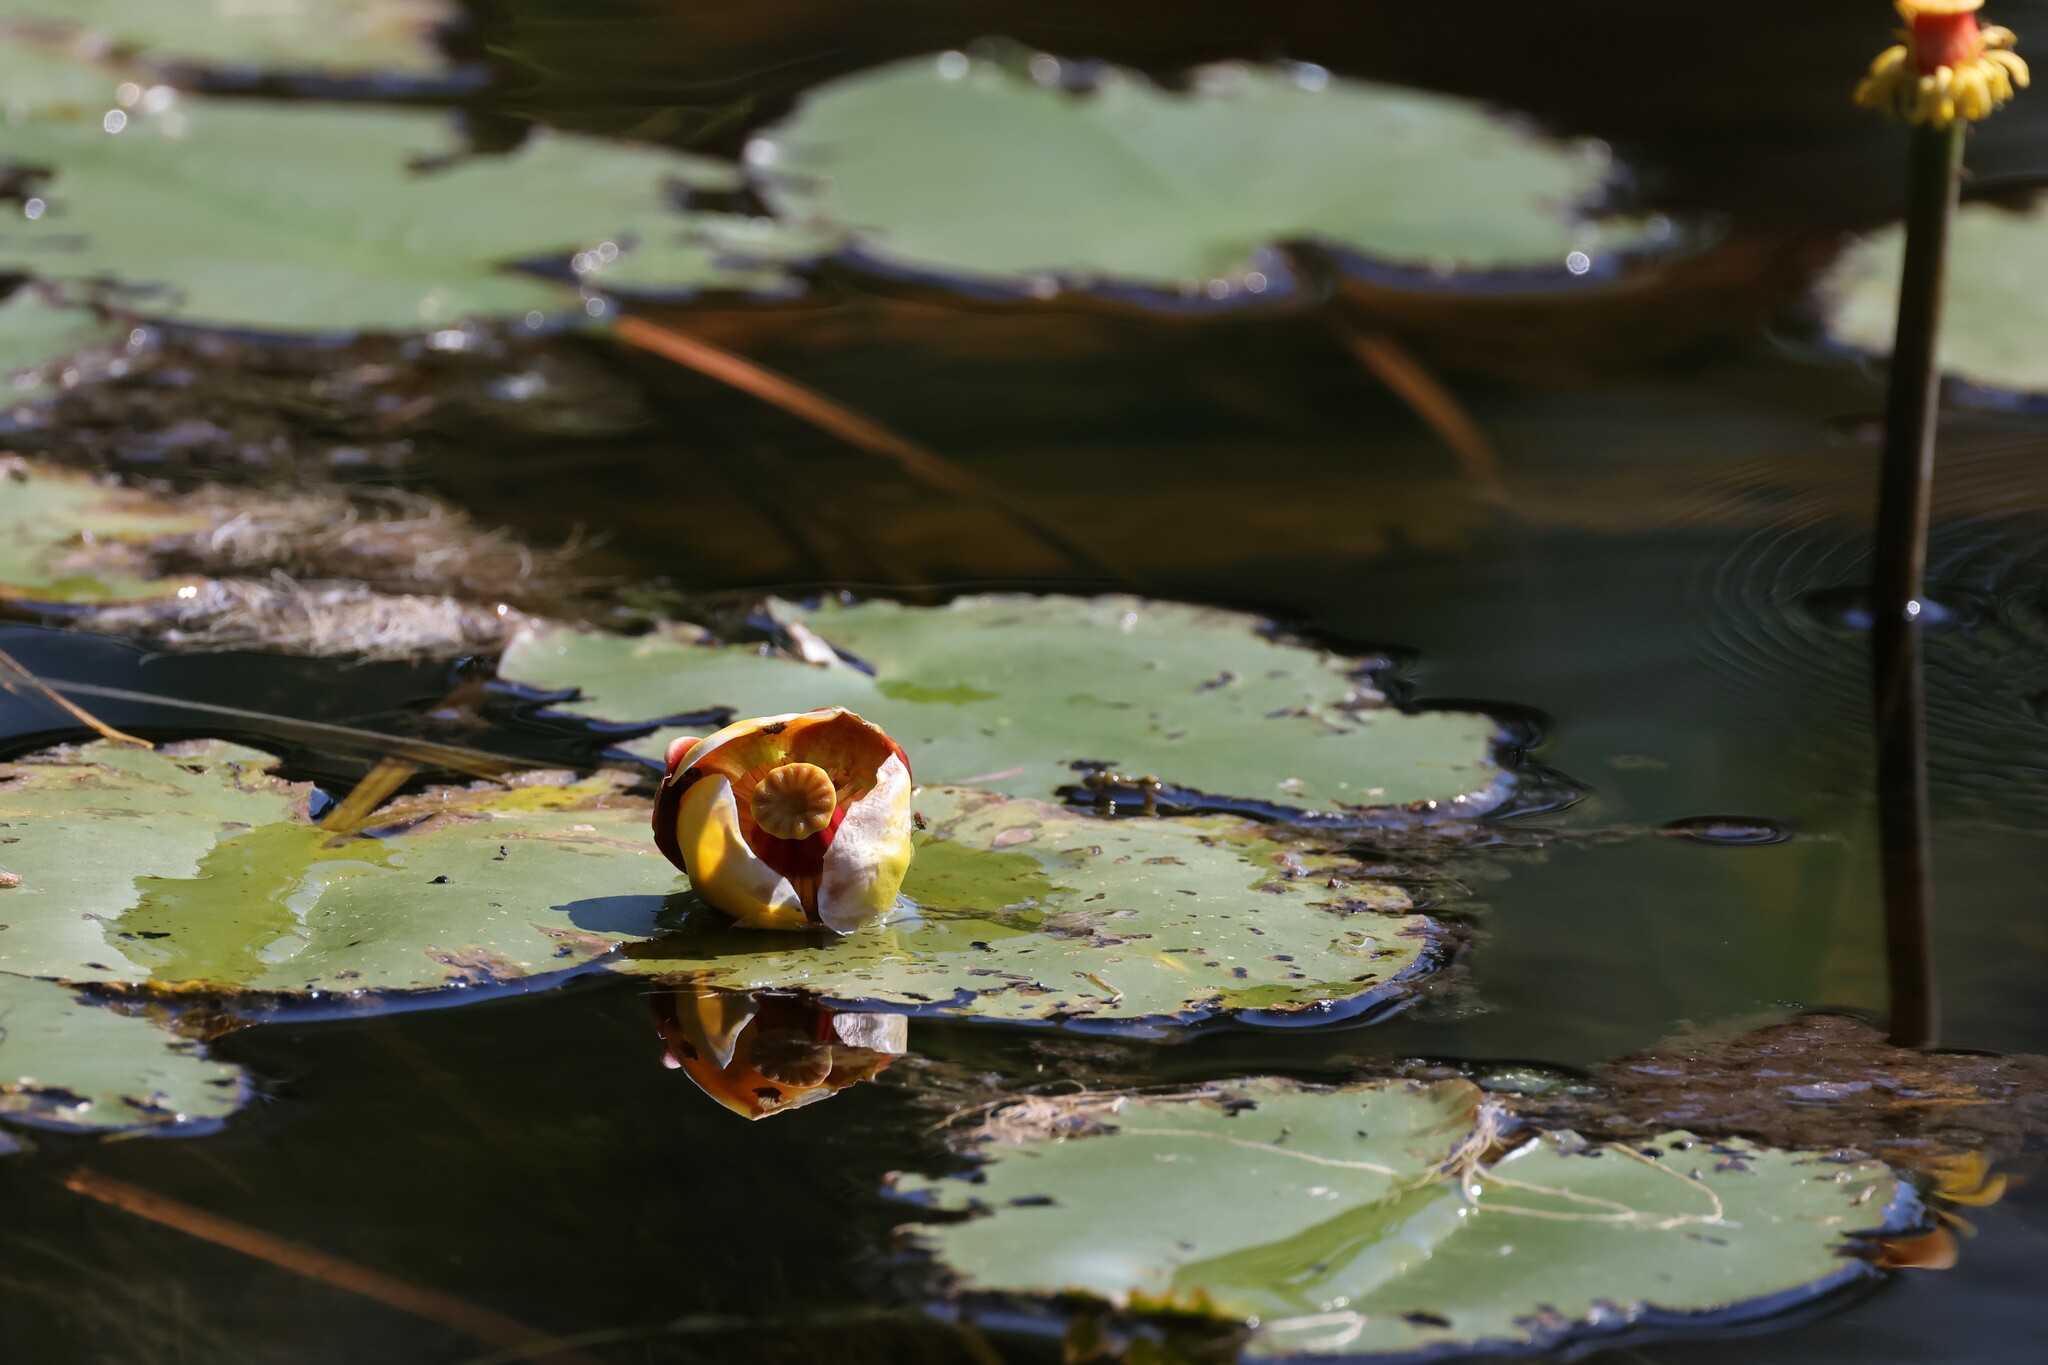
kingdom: Plantae
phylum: Tracheophyta
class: Magnoliopsida
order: Nymphaeales
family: Nymphaeaceae
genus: Nuphar
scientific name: Nuphar variegata
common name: Beaver-root
